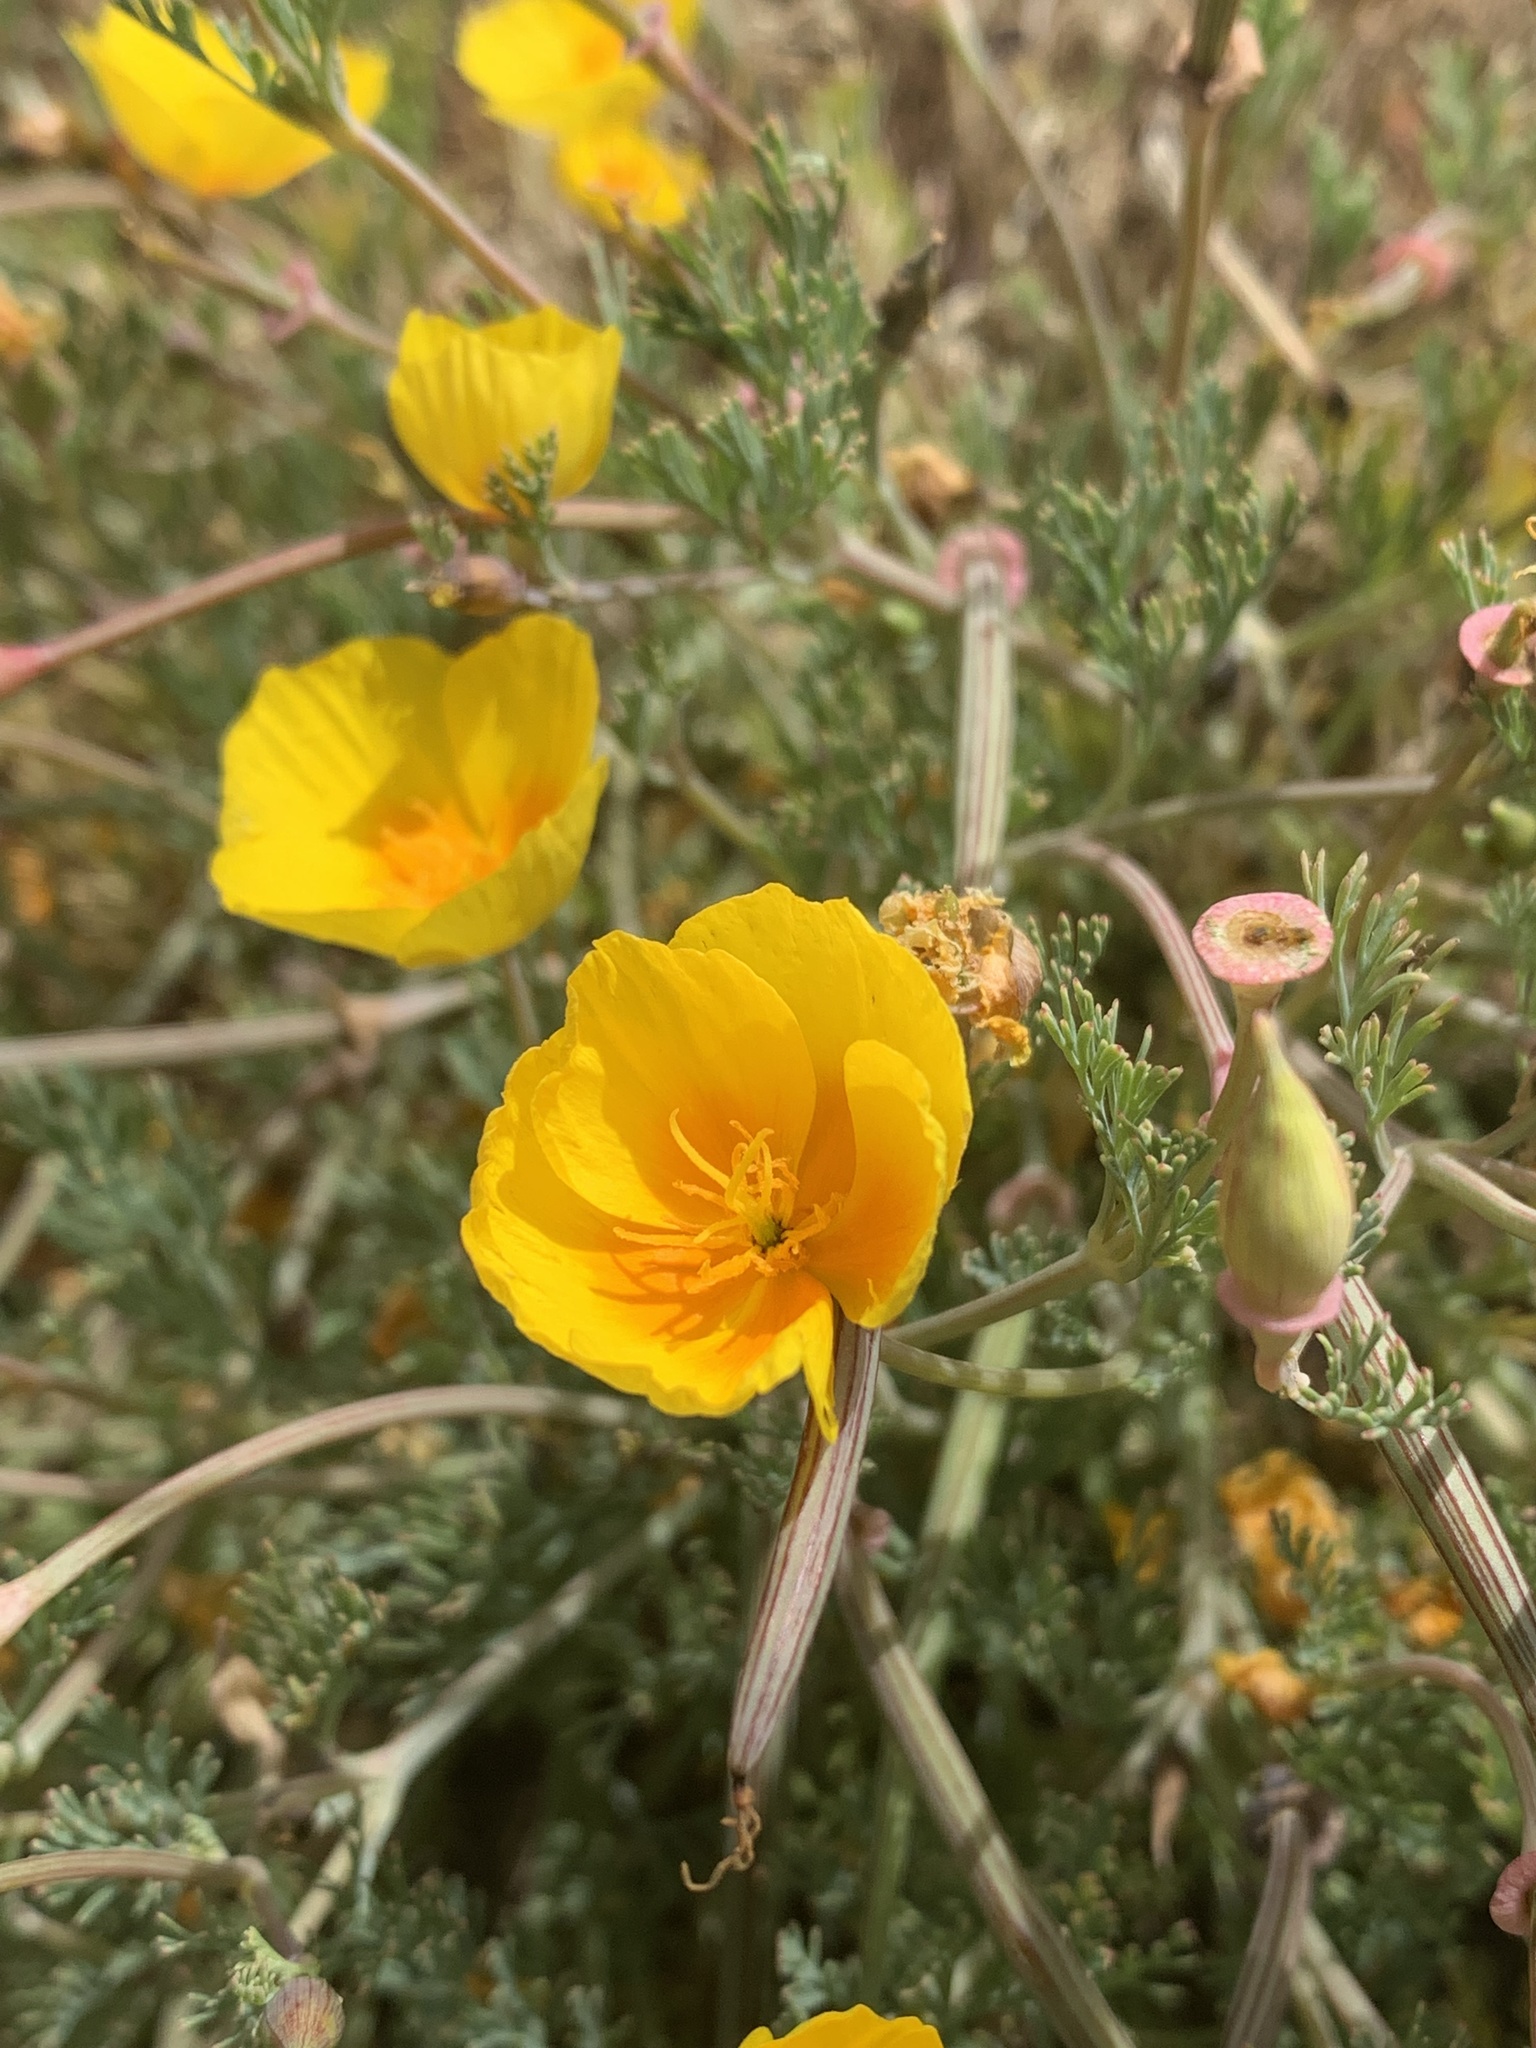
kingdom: Plantae
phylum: Tracheophyta
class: Magnoliopsida
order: Ranunculales
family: Papaveraceae
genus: Eschscholzia
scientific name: Eschscholzia californica
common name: California poppy
